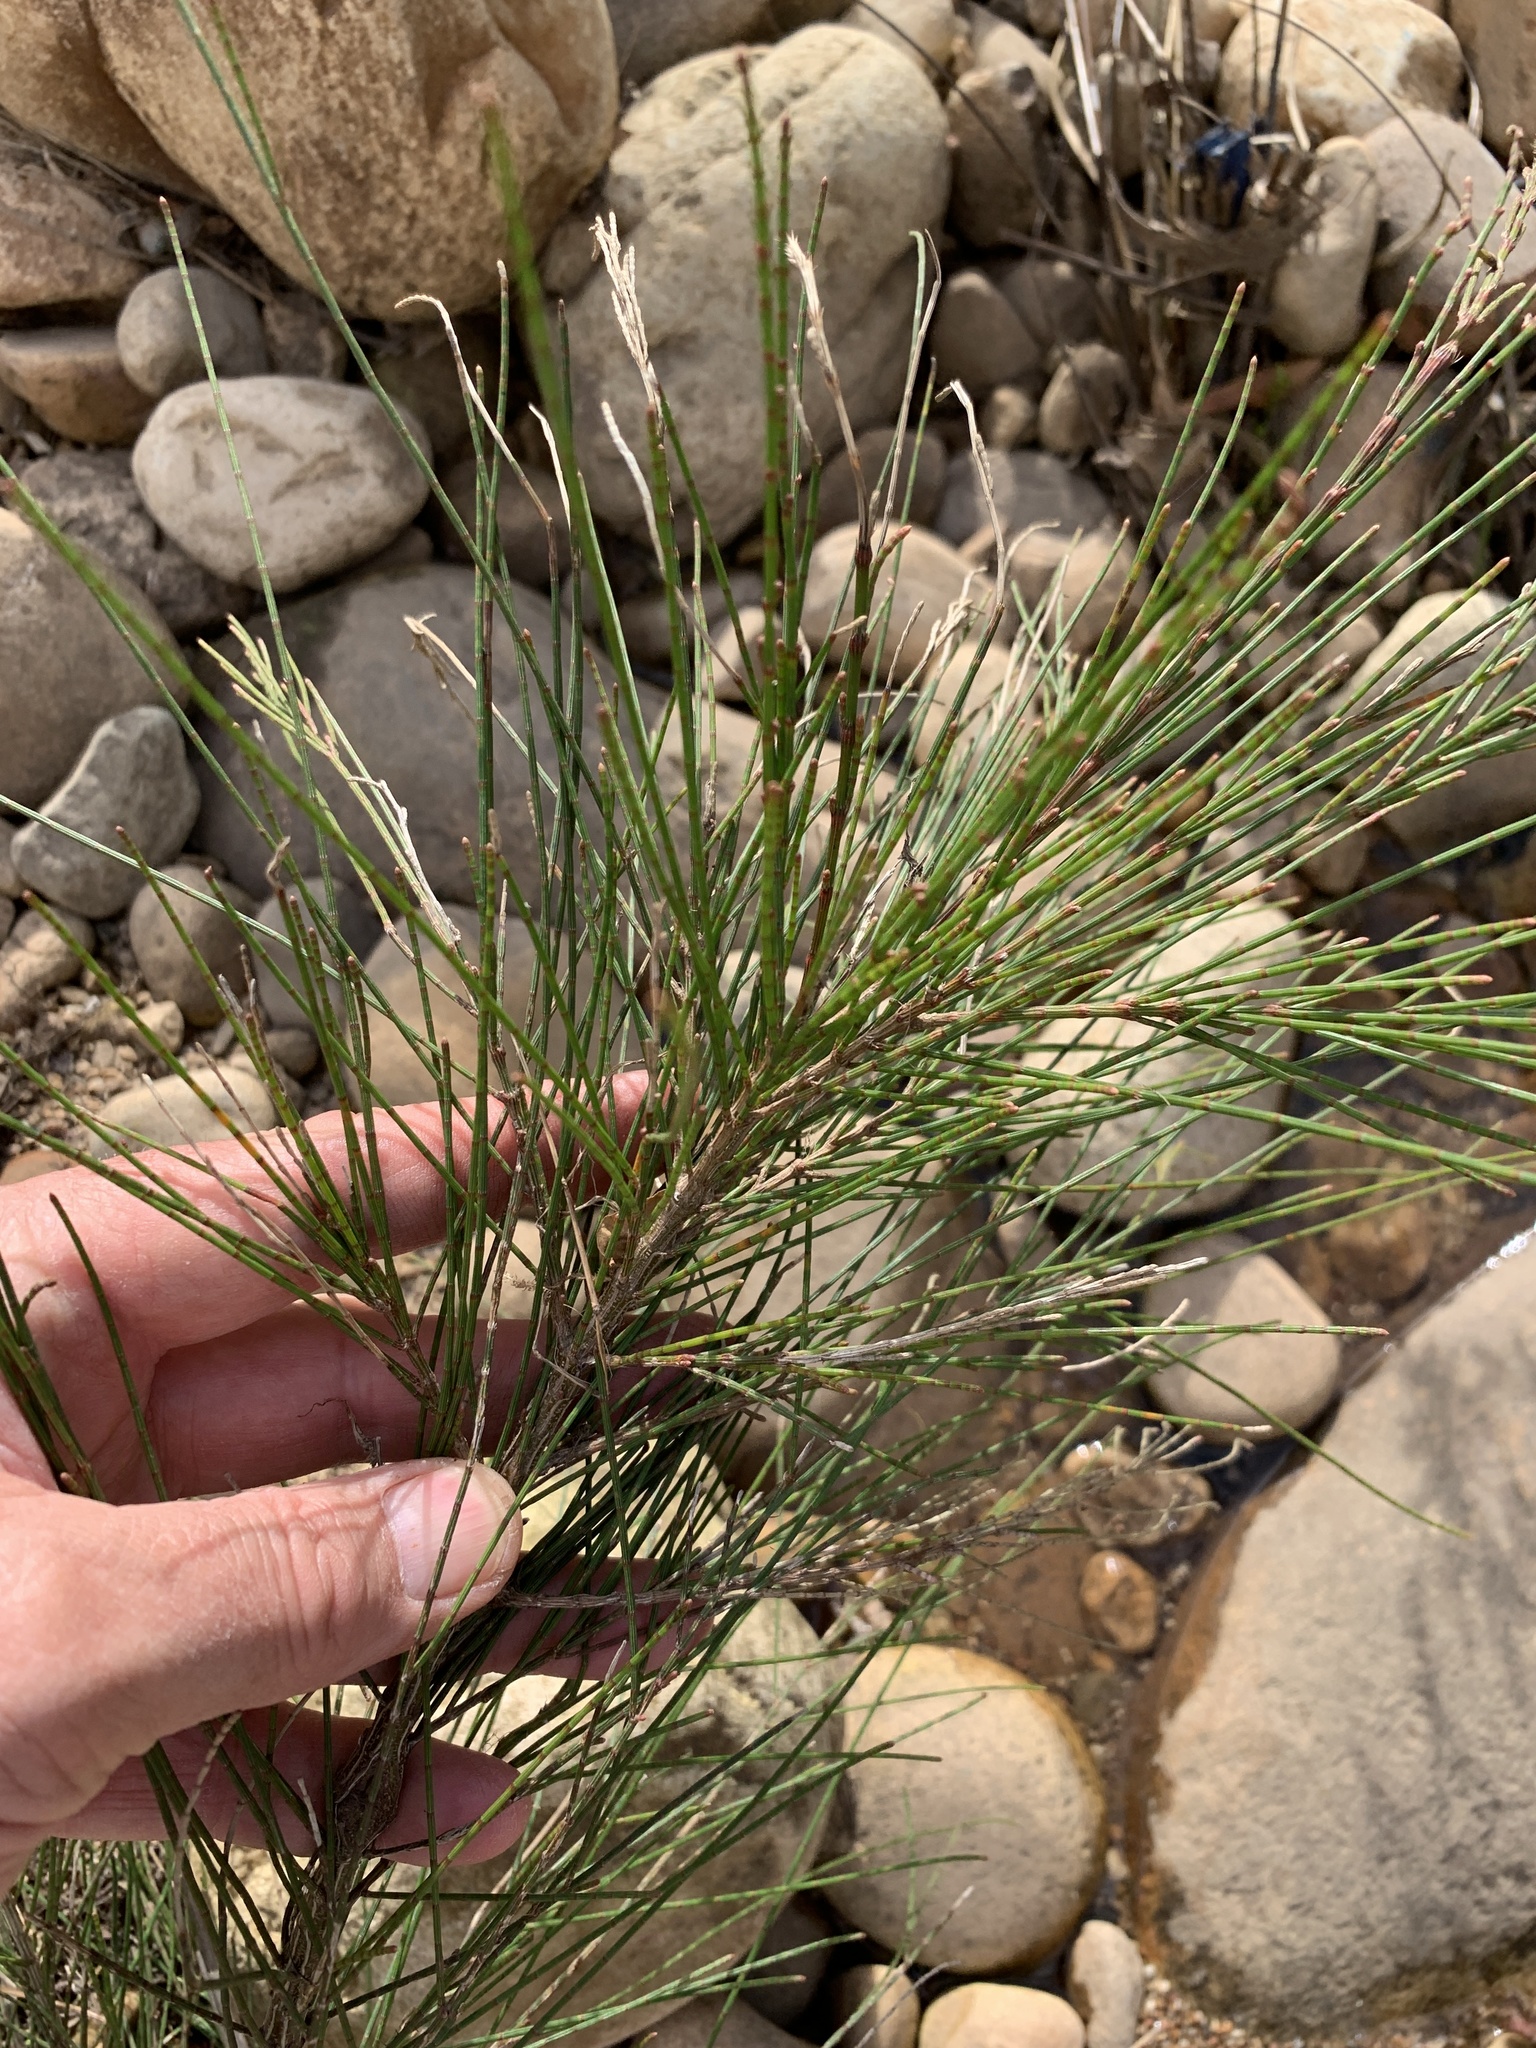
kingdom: Plantae
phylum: Tracheophyta
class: Magnoliopsida
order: Fagales
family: Casuarinaceae
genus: Casuarina
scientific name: Casuarina cunninghamiana
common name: River sheoak
